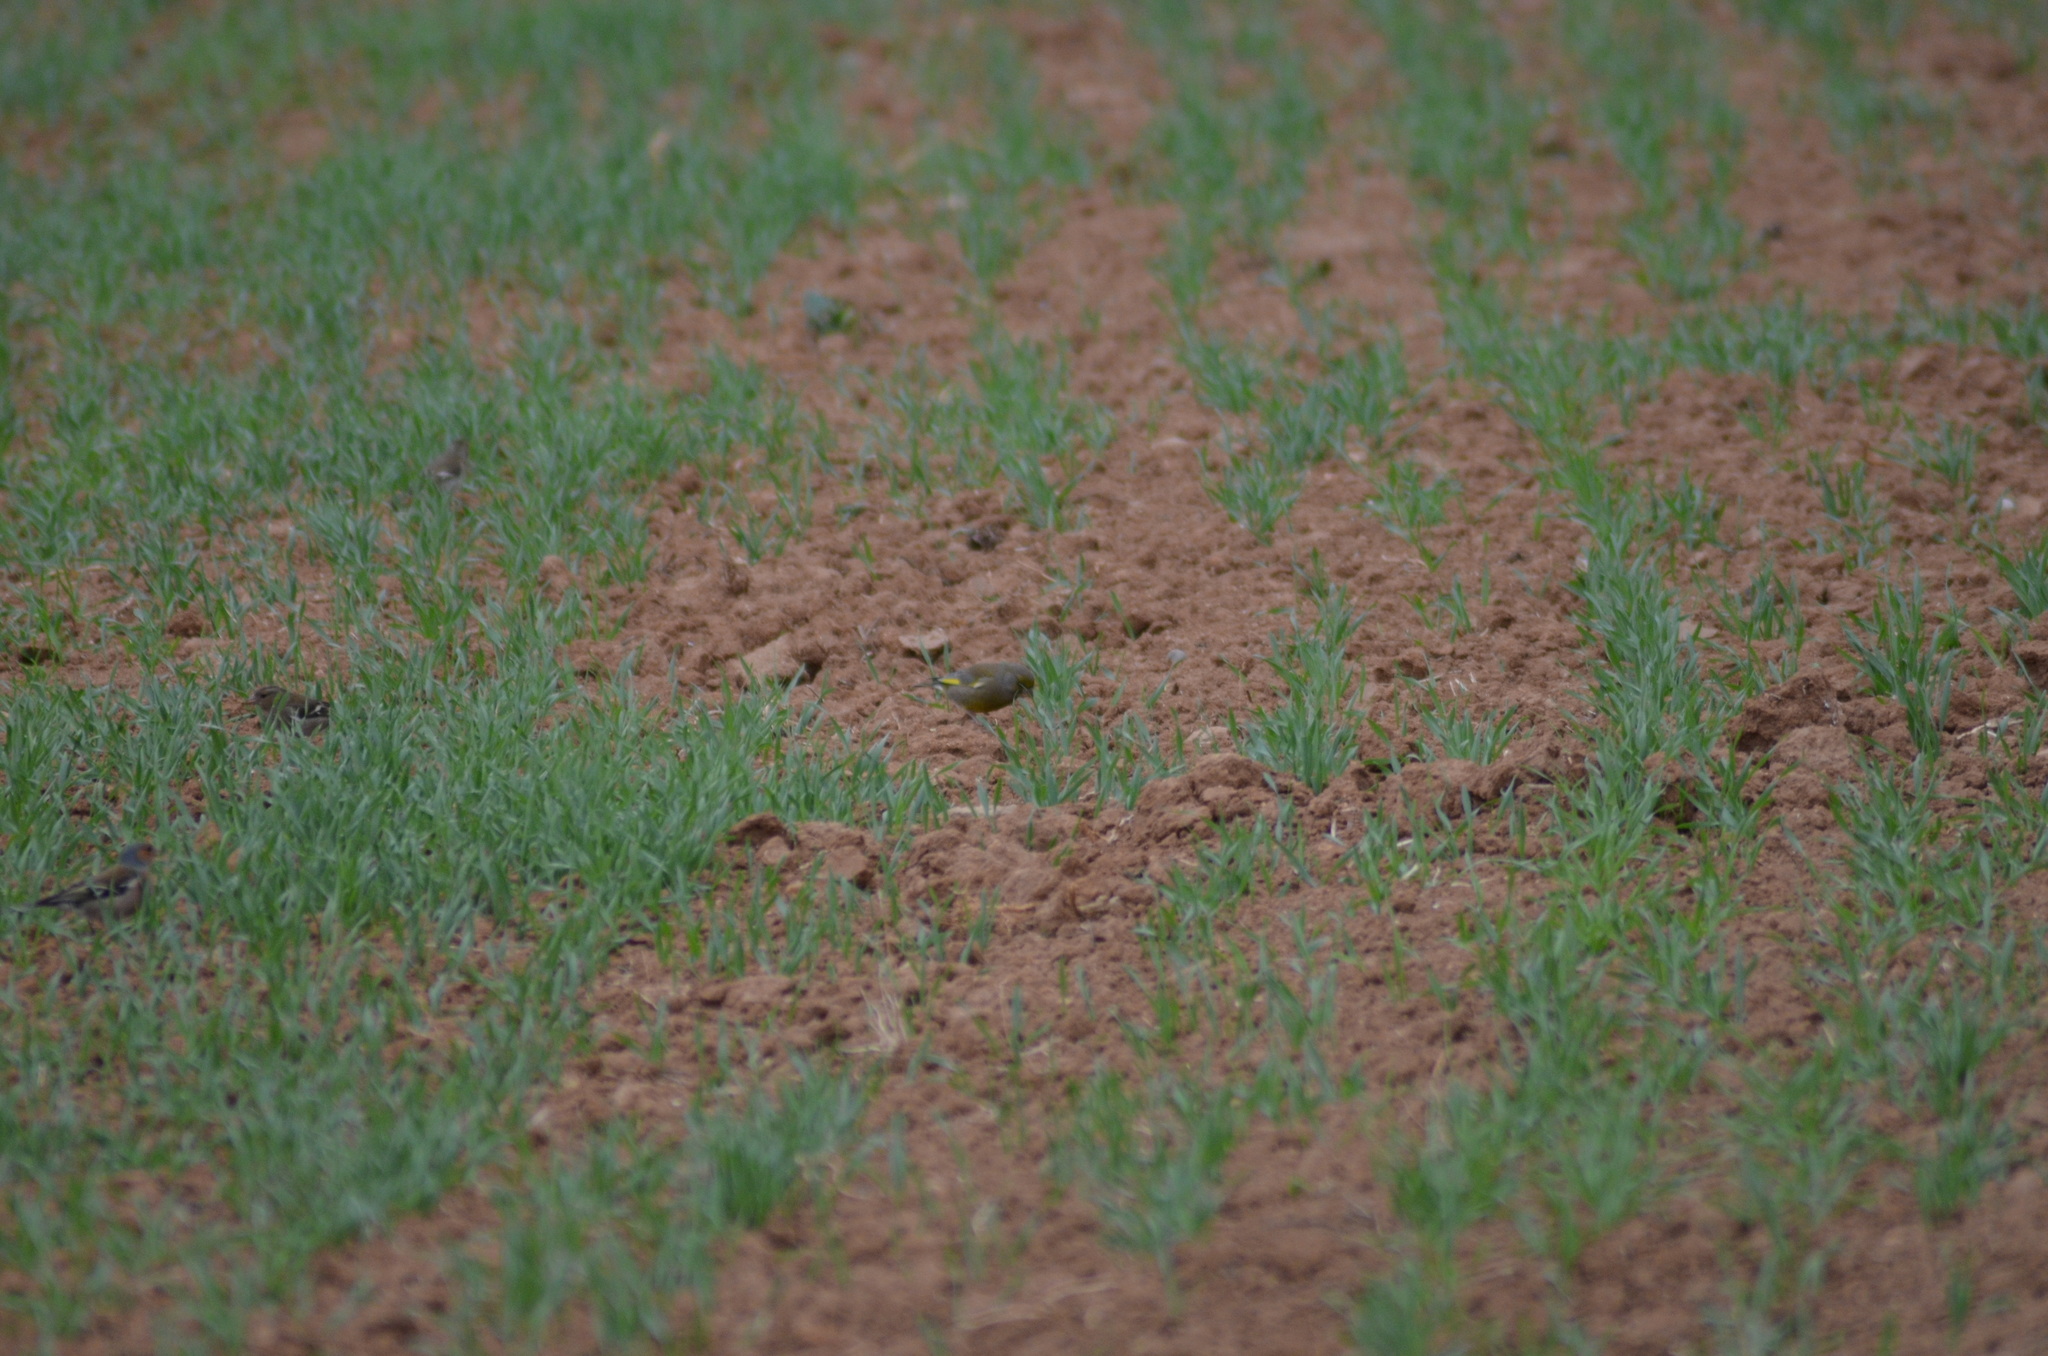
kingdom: Plantae
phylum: Tracheophyta
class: Liliopsida
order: Poales
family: Poaceae
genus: Chloris
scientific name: Chloris chloris
